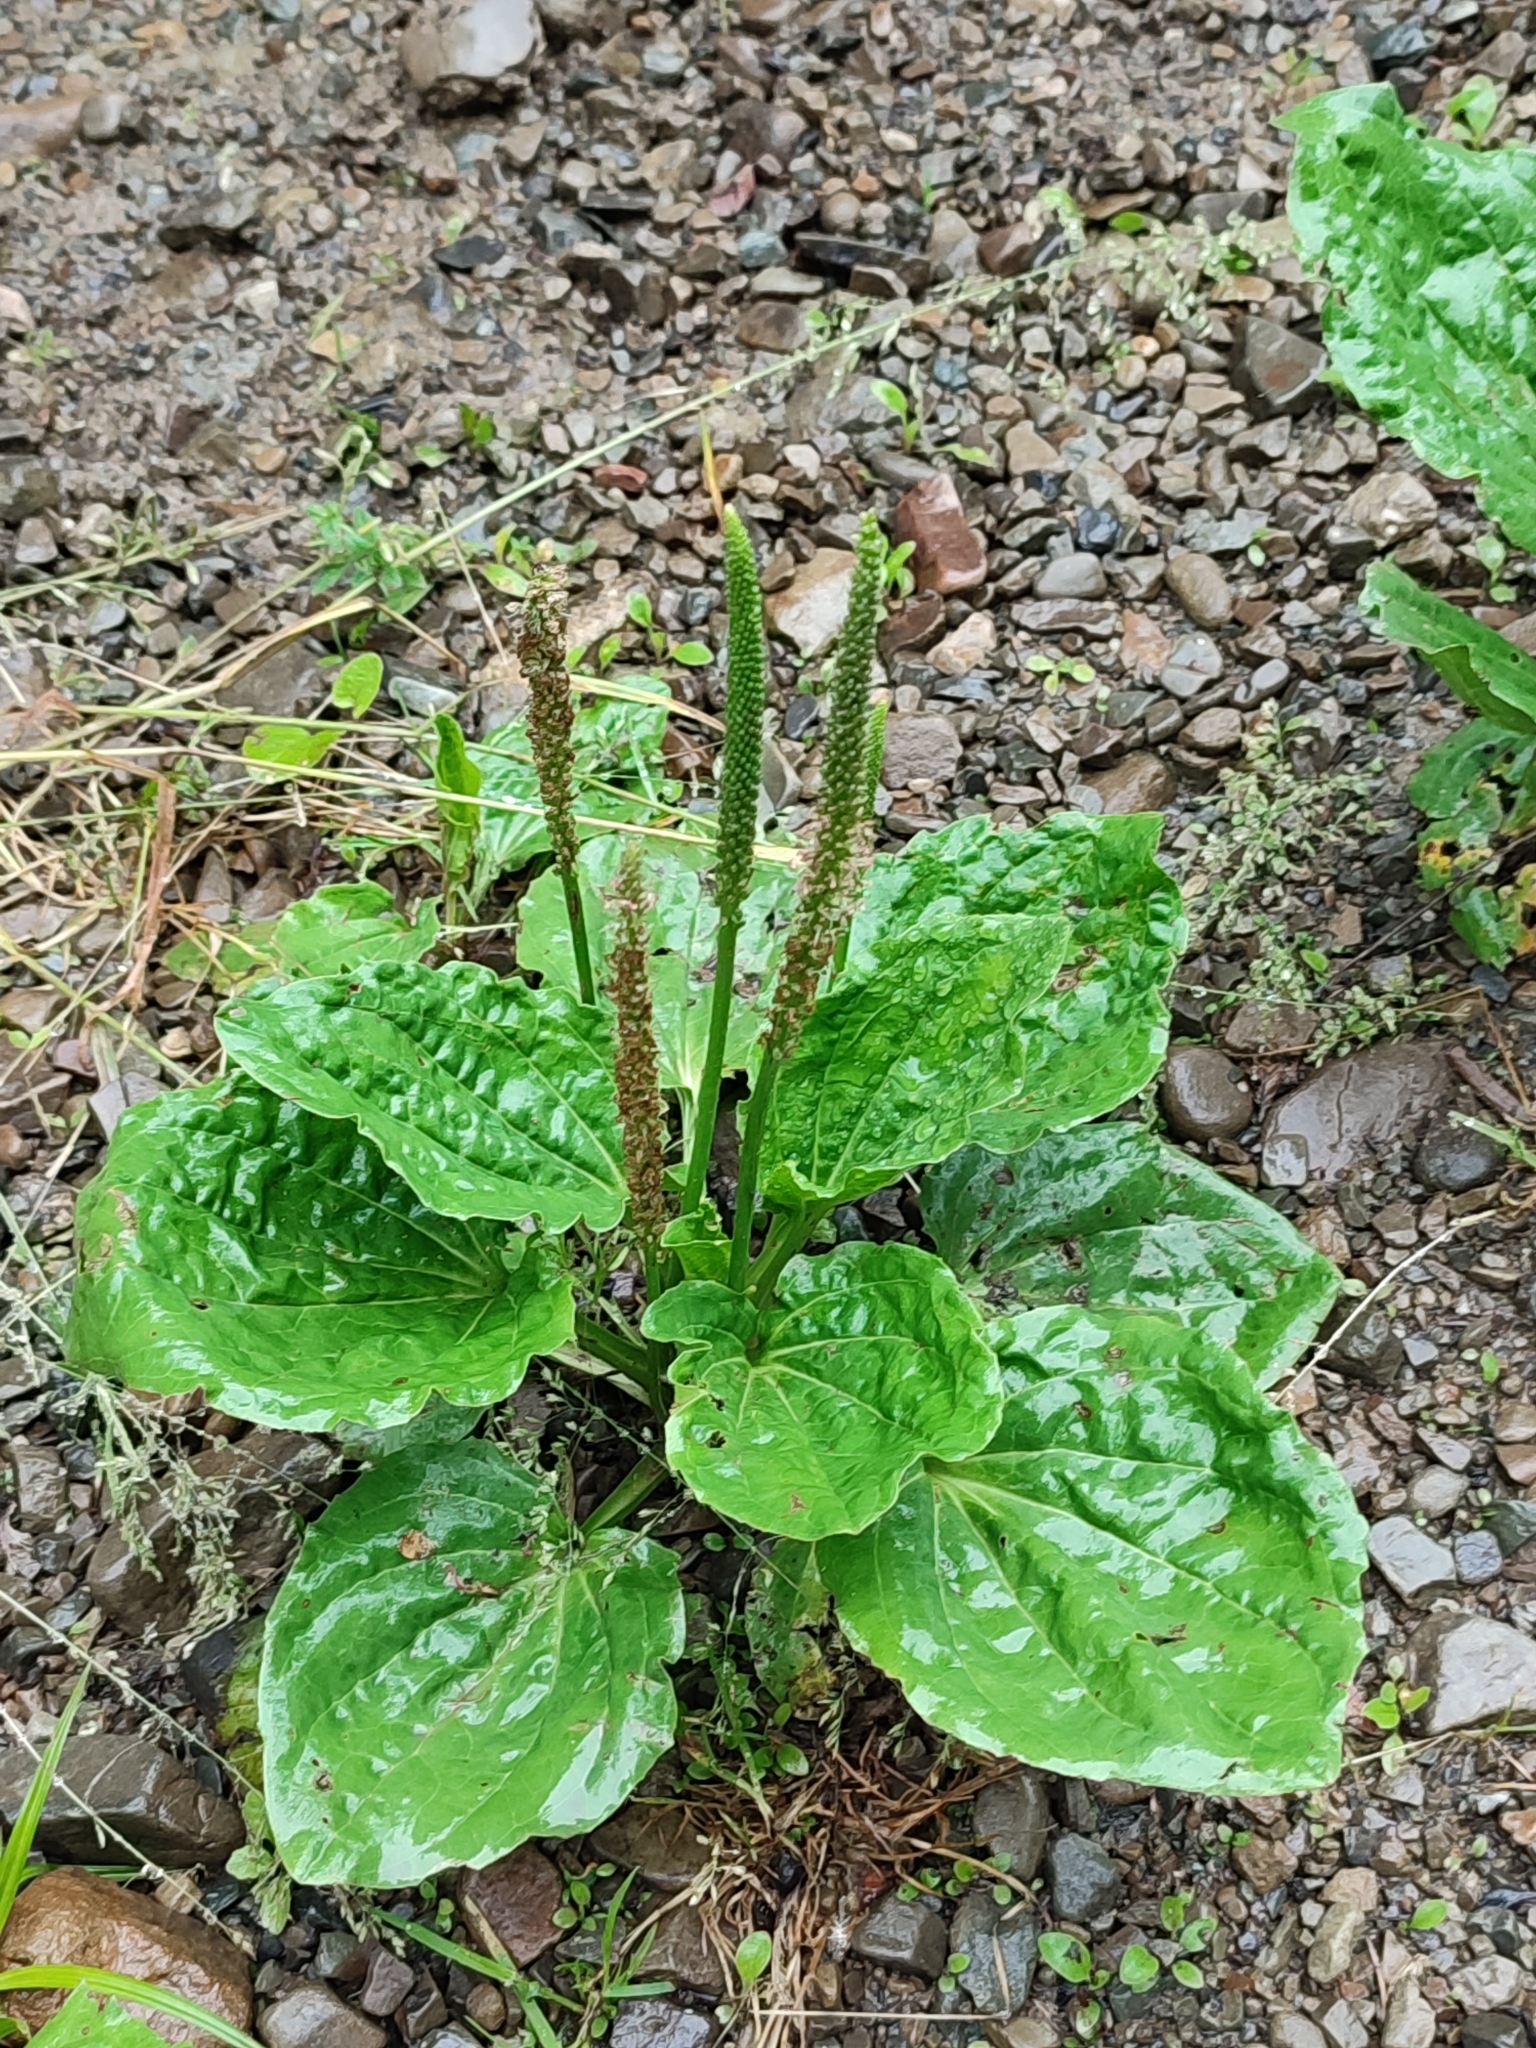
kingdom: Plantae
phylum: Tracheophyta
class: Magnoliopsida
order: Lamiales
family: Plantaginaceae
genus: Plantago
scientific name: Plantago major
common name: Common plantain
